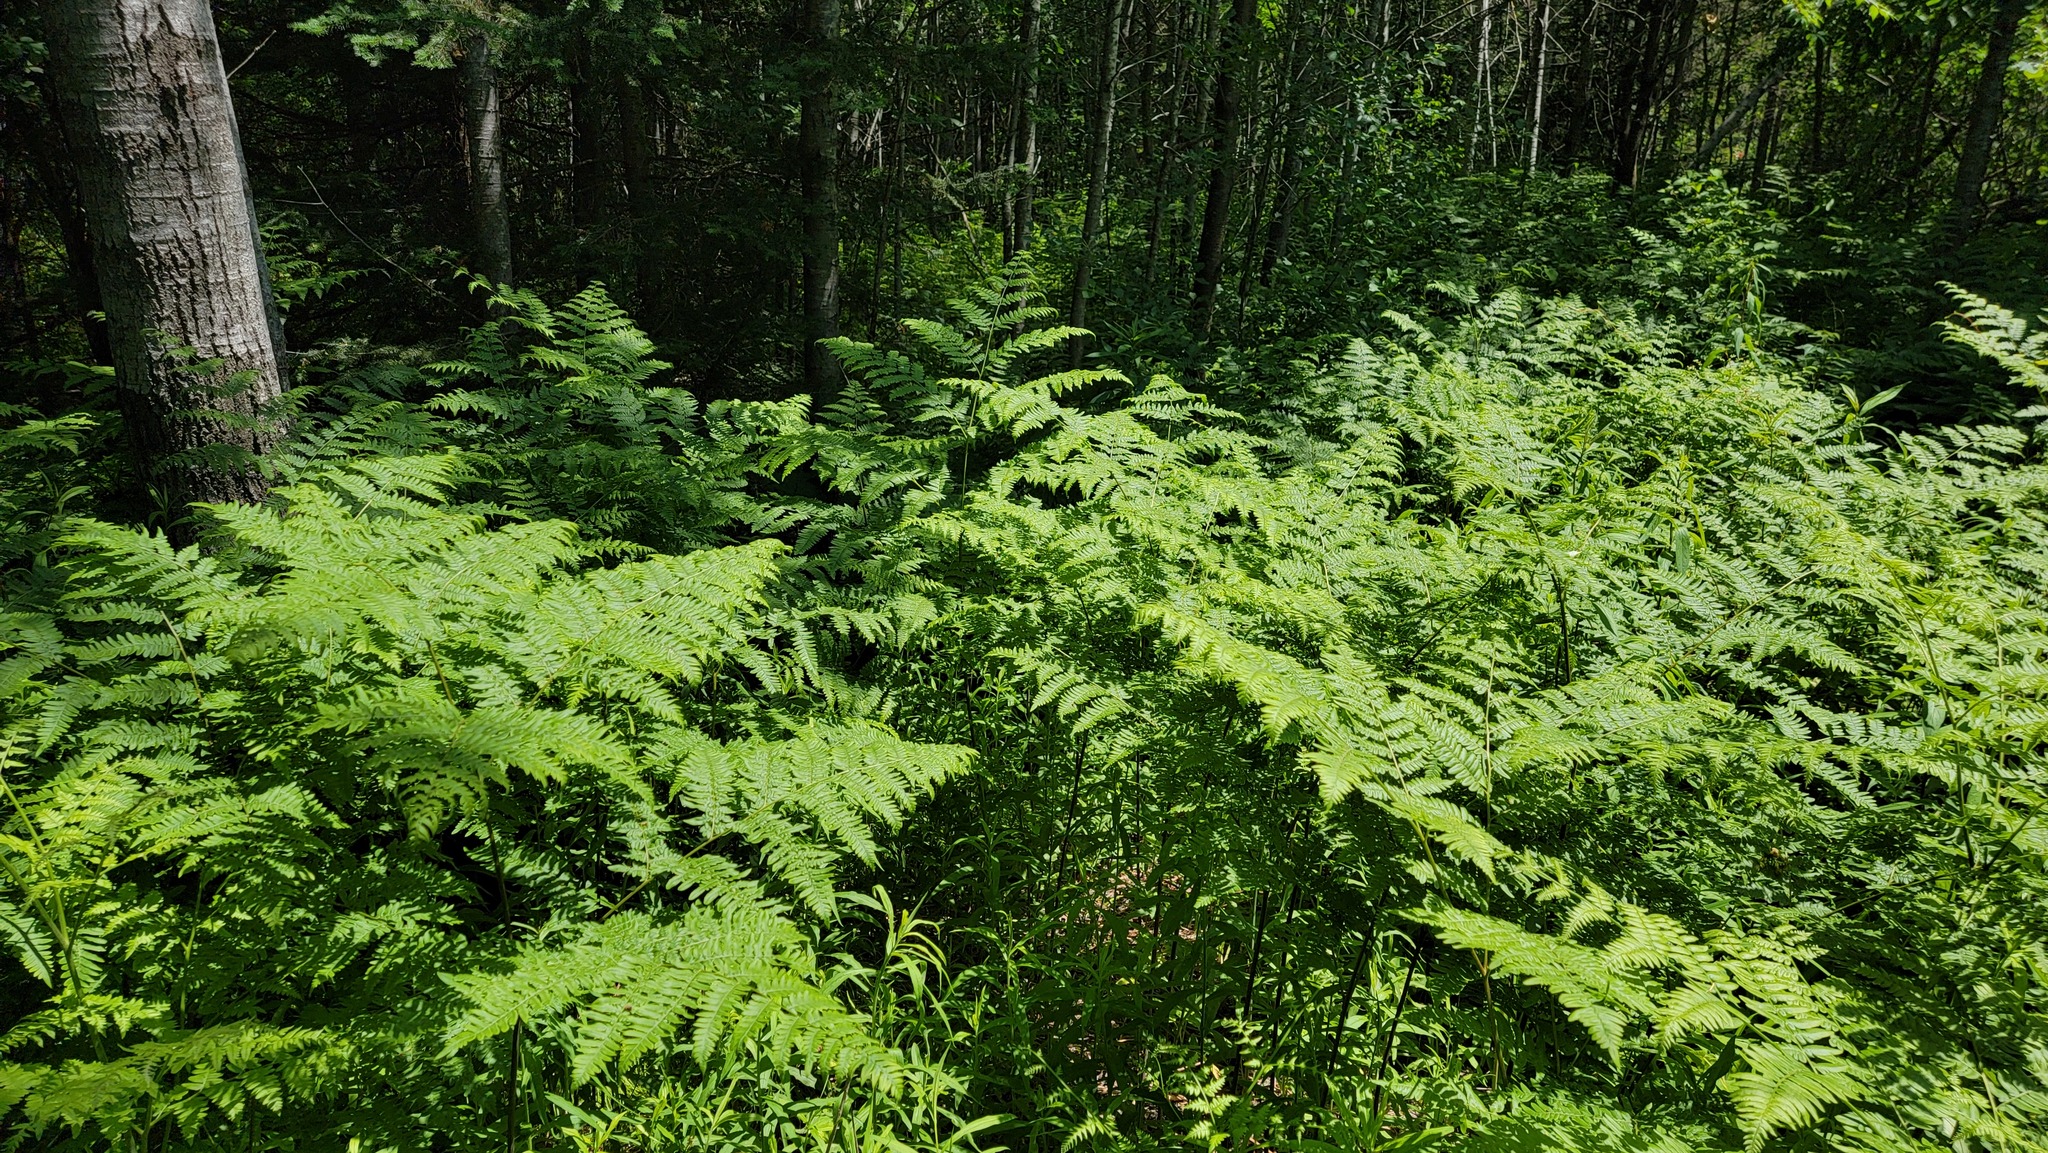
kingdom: Plantae
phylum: Tracheophyta
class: Polypodiopsida
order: Polypodiales
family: Dennstaedtiaceae
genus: Pteridium
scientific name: Pteridium aquilinum
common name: Bracken
